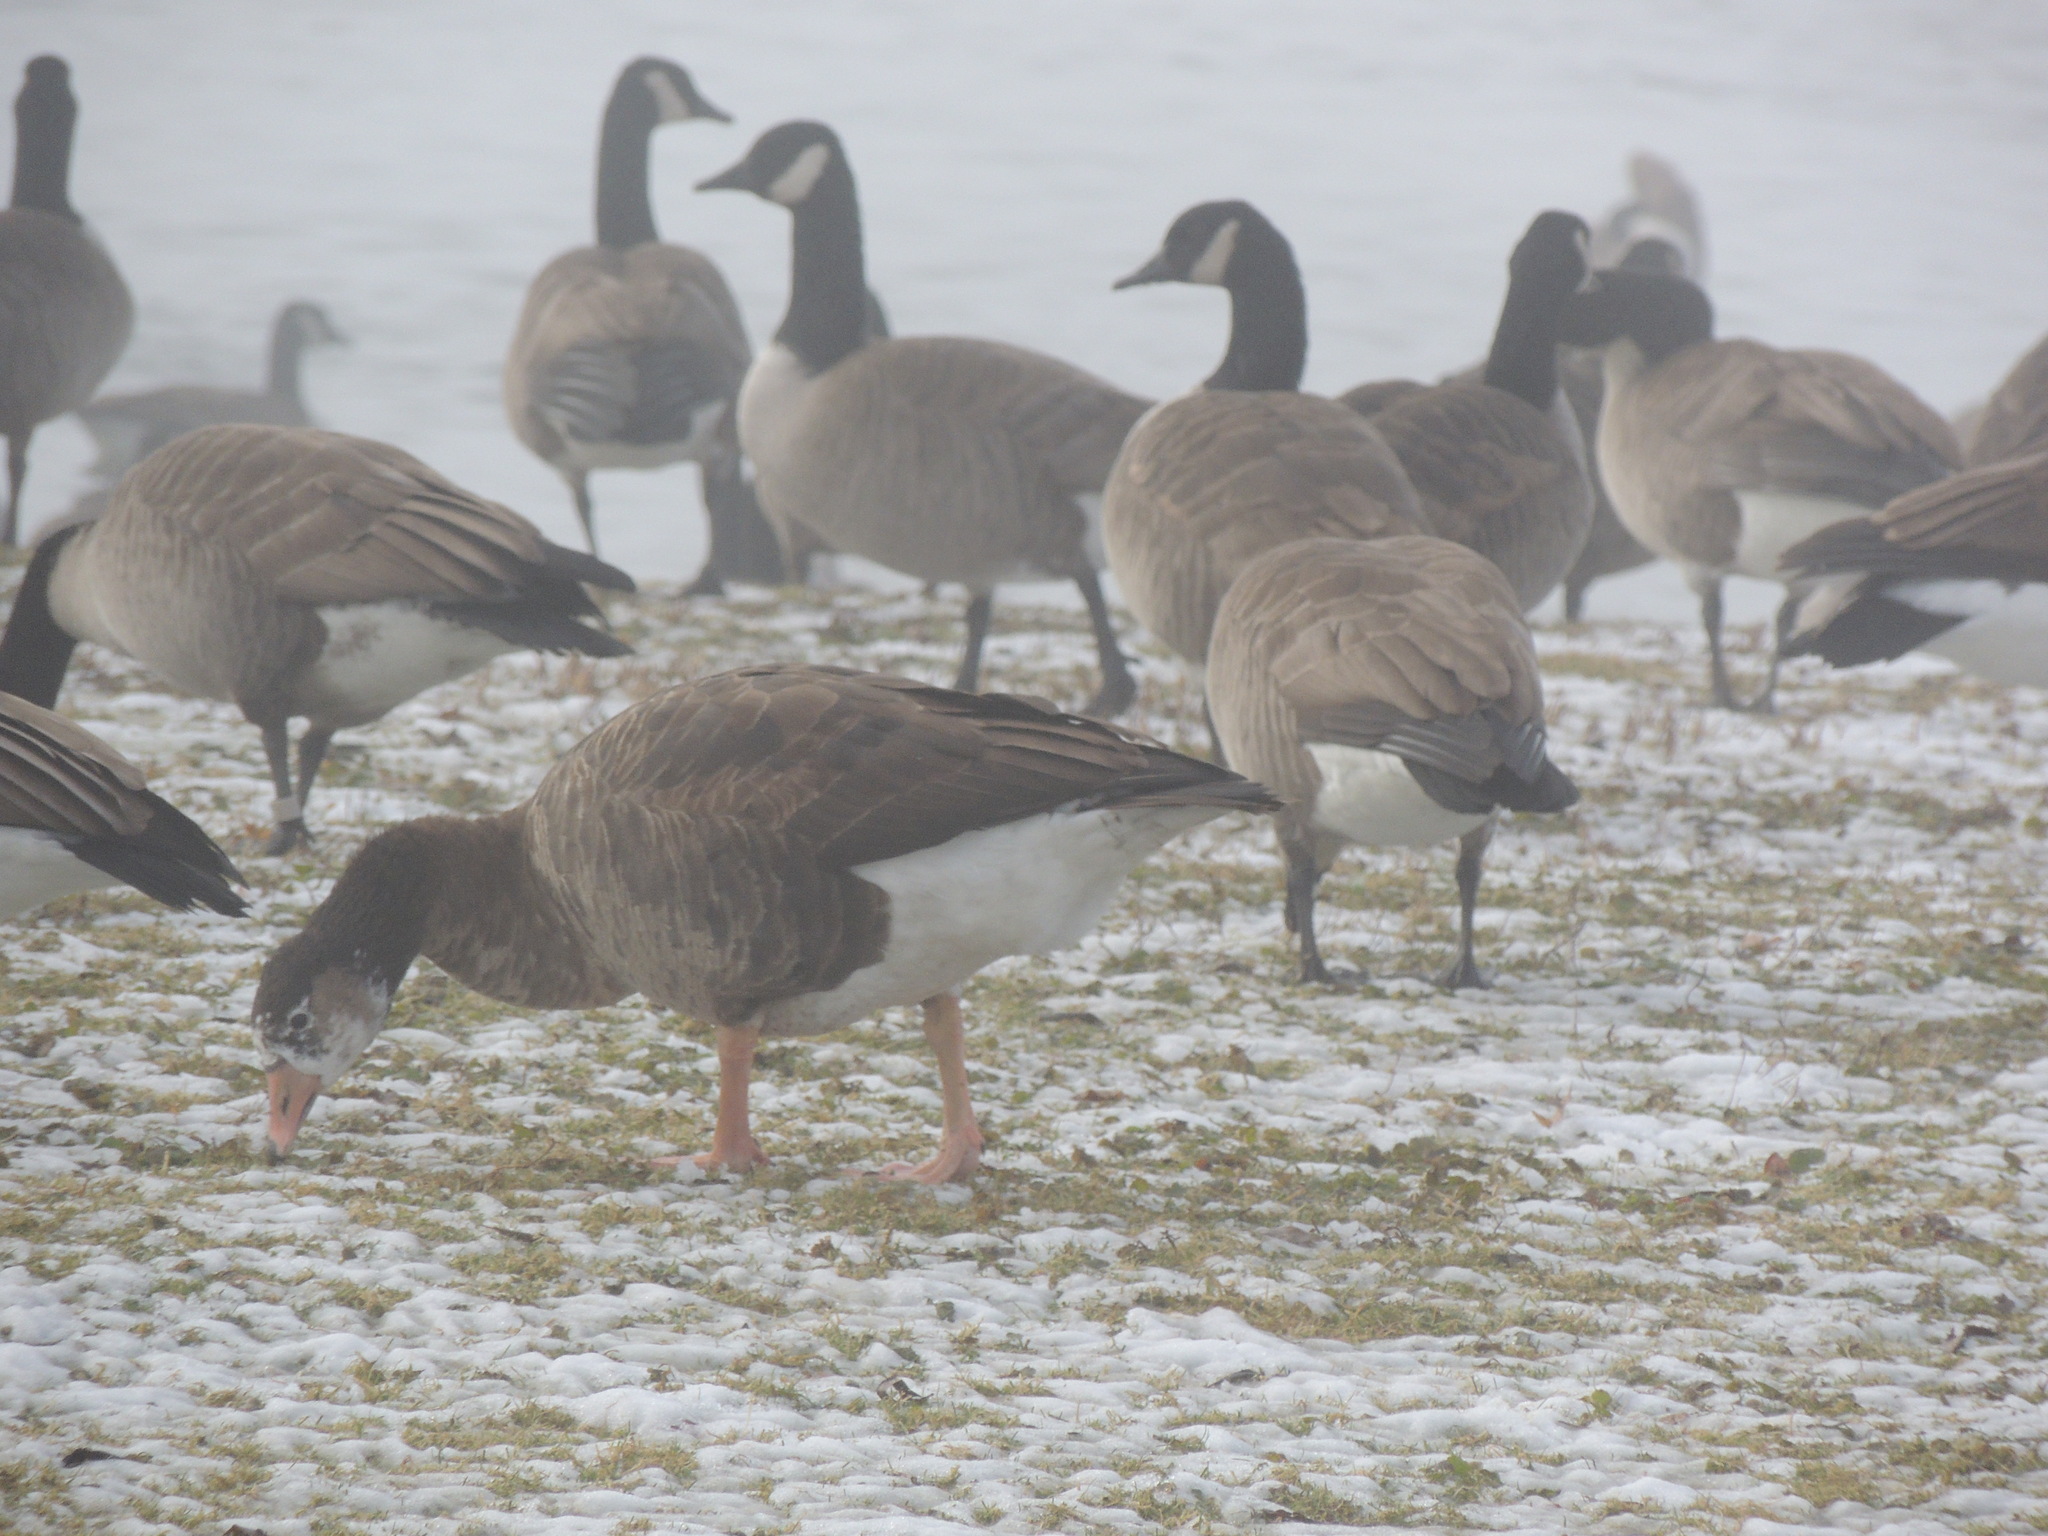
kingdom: Animalia
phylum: Chordata
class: Aves
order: Anseriformes
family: Anatidae
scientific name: Anatidae
